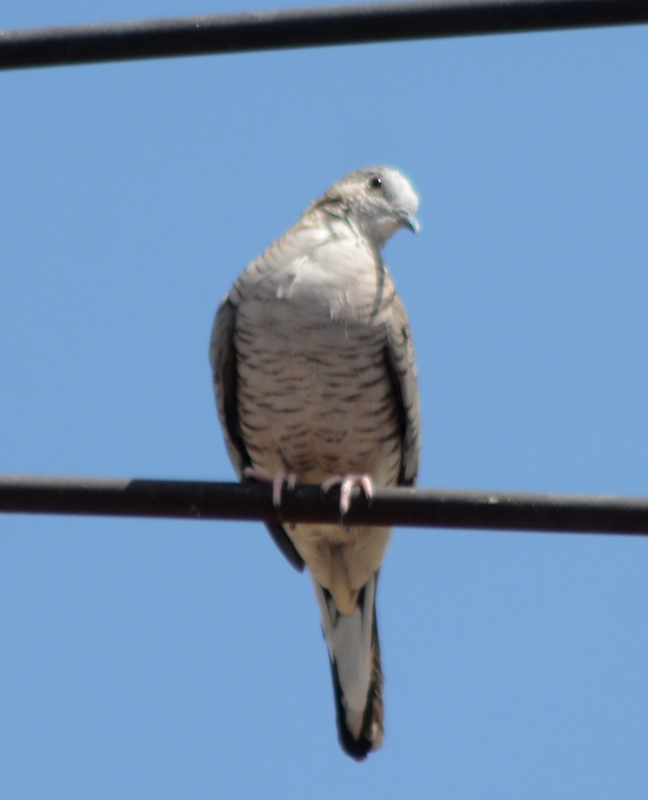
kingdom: Animalia
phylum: Chordata
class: Aves
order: Columbiformes
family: Columbidae
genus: Columbina
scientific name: Columbina inca
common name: Inca dove
